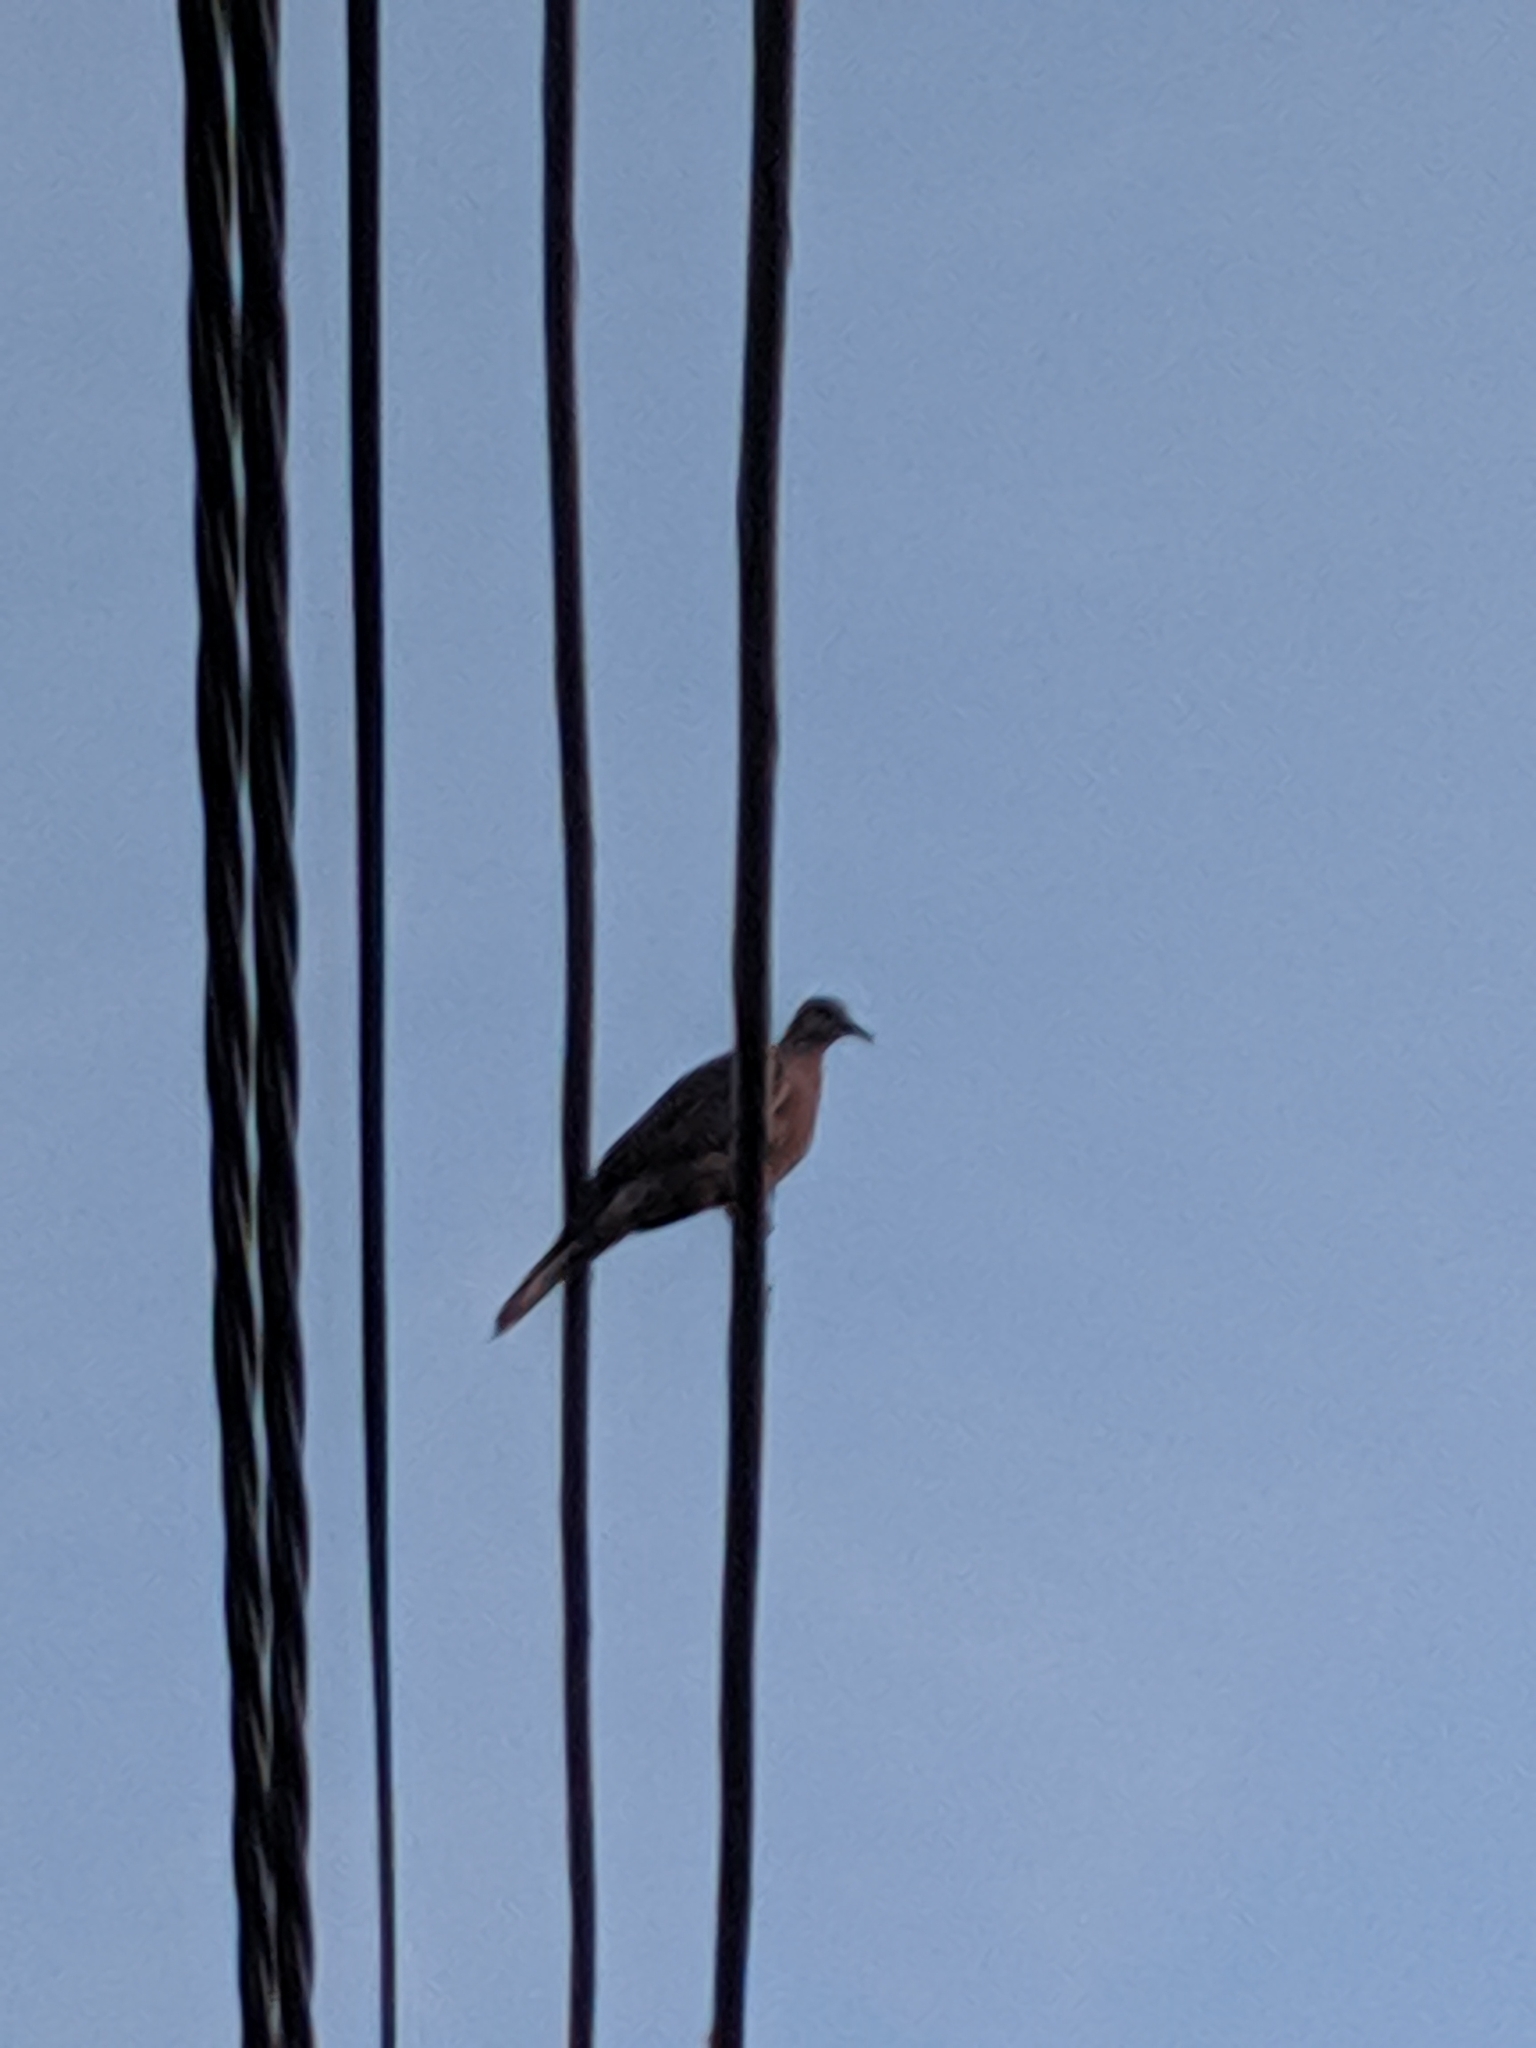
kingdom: Animalia
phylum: Chordata
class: Aves
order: Columbiformes
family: Columbidae
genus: Spilopelia
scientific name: Spilopelia chinensis
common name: Spotted dove
